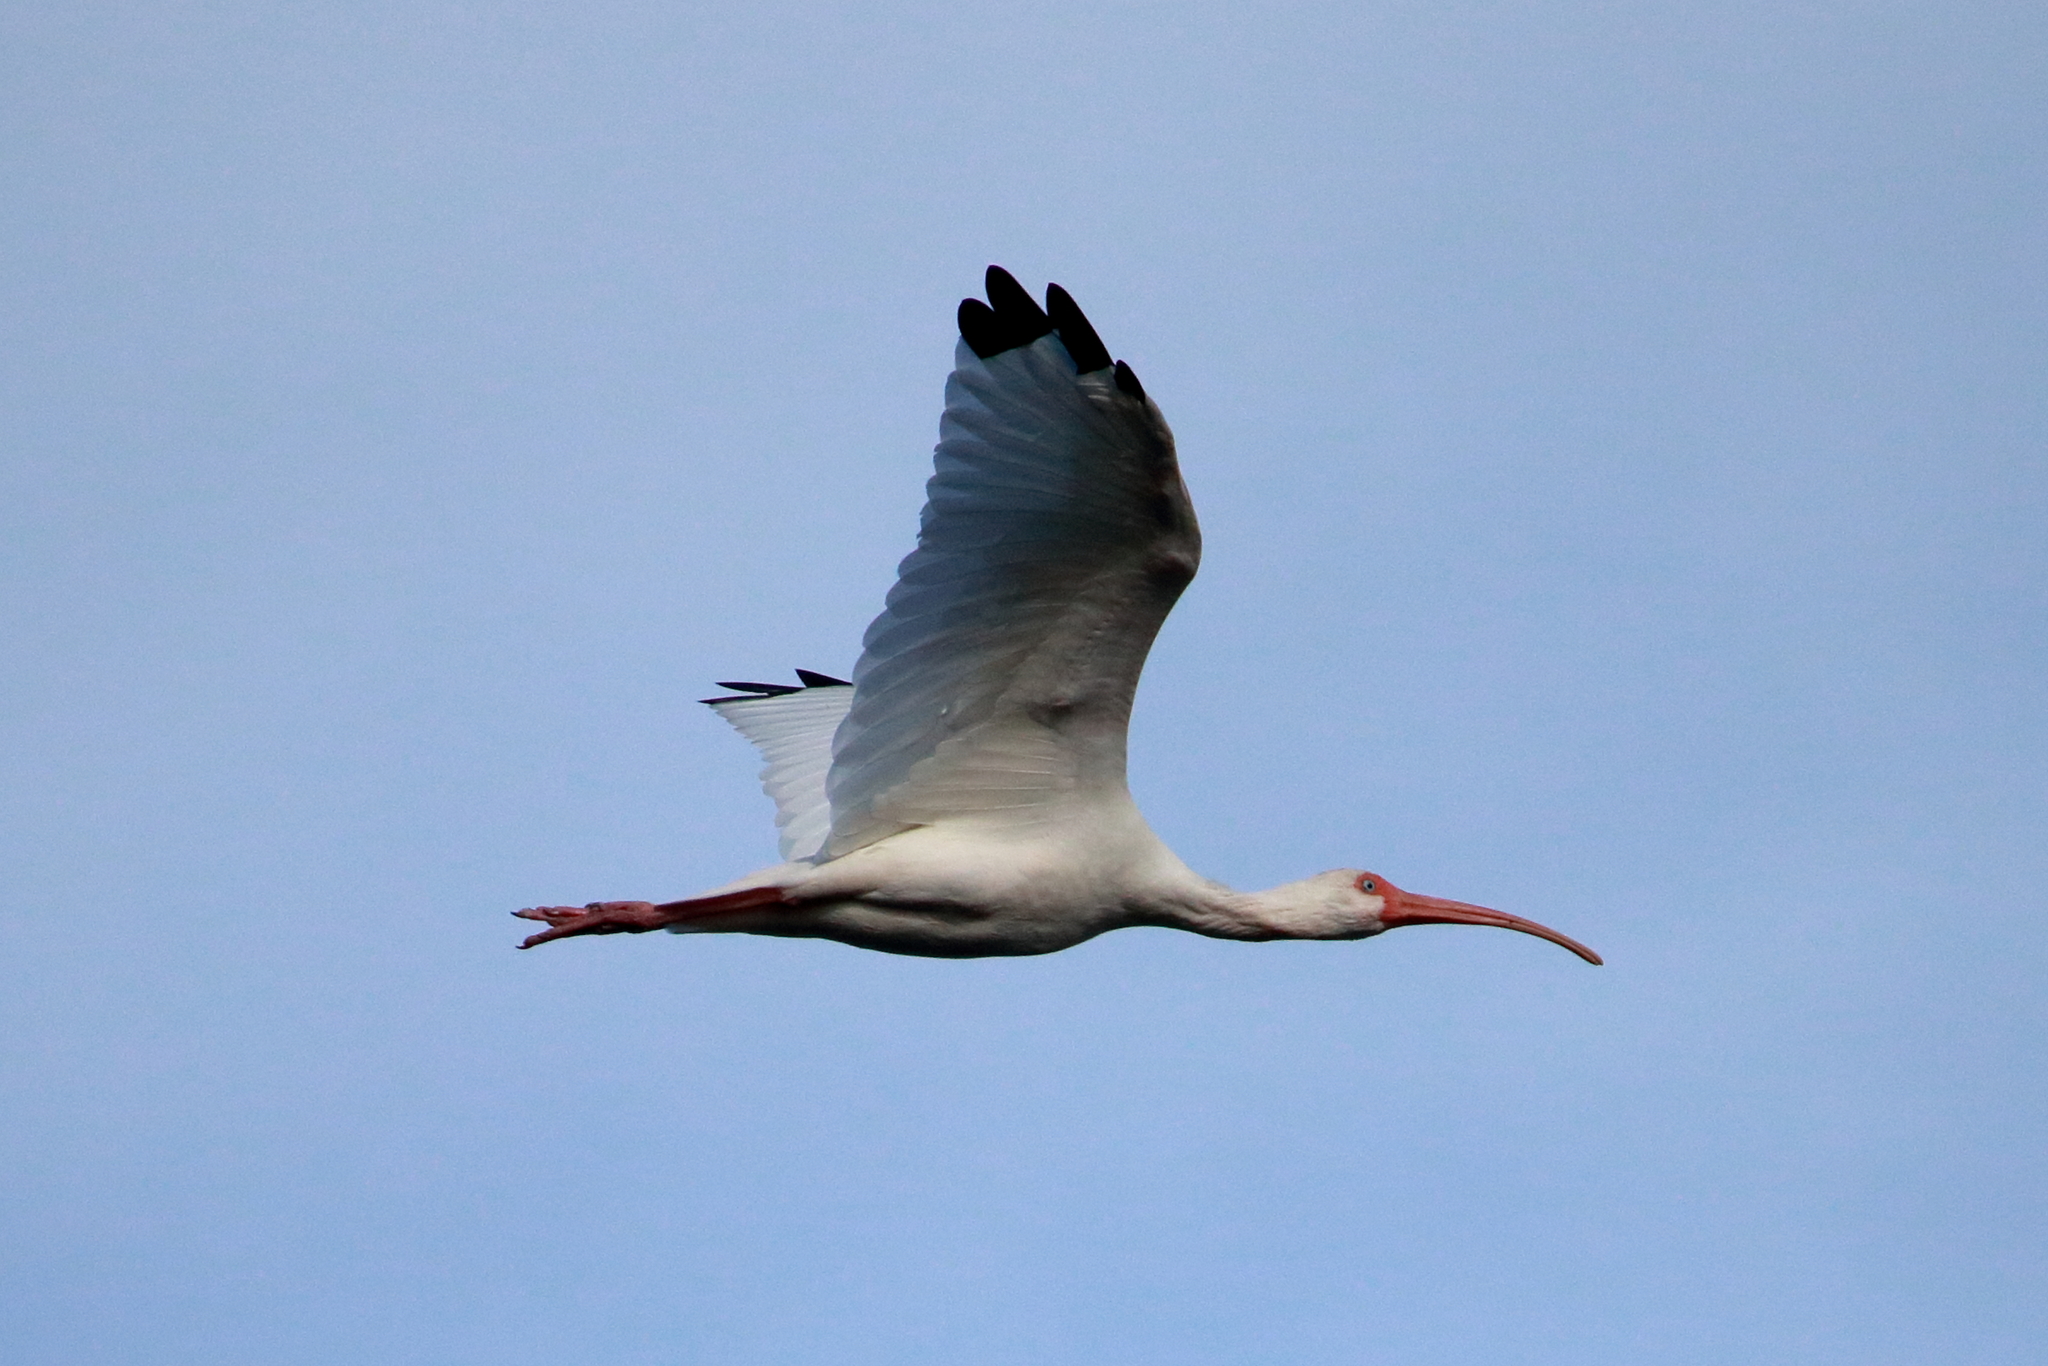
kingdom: Animalia
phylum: Chordata
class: Aves
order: Pelecaniformes
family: Threskiornithidae
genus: Eudocimus
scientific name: Eudocimus albus
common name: White ibis
